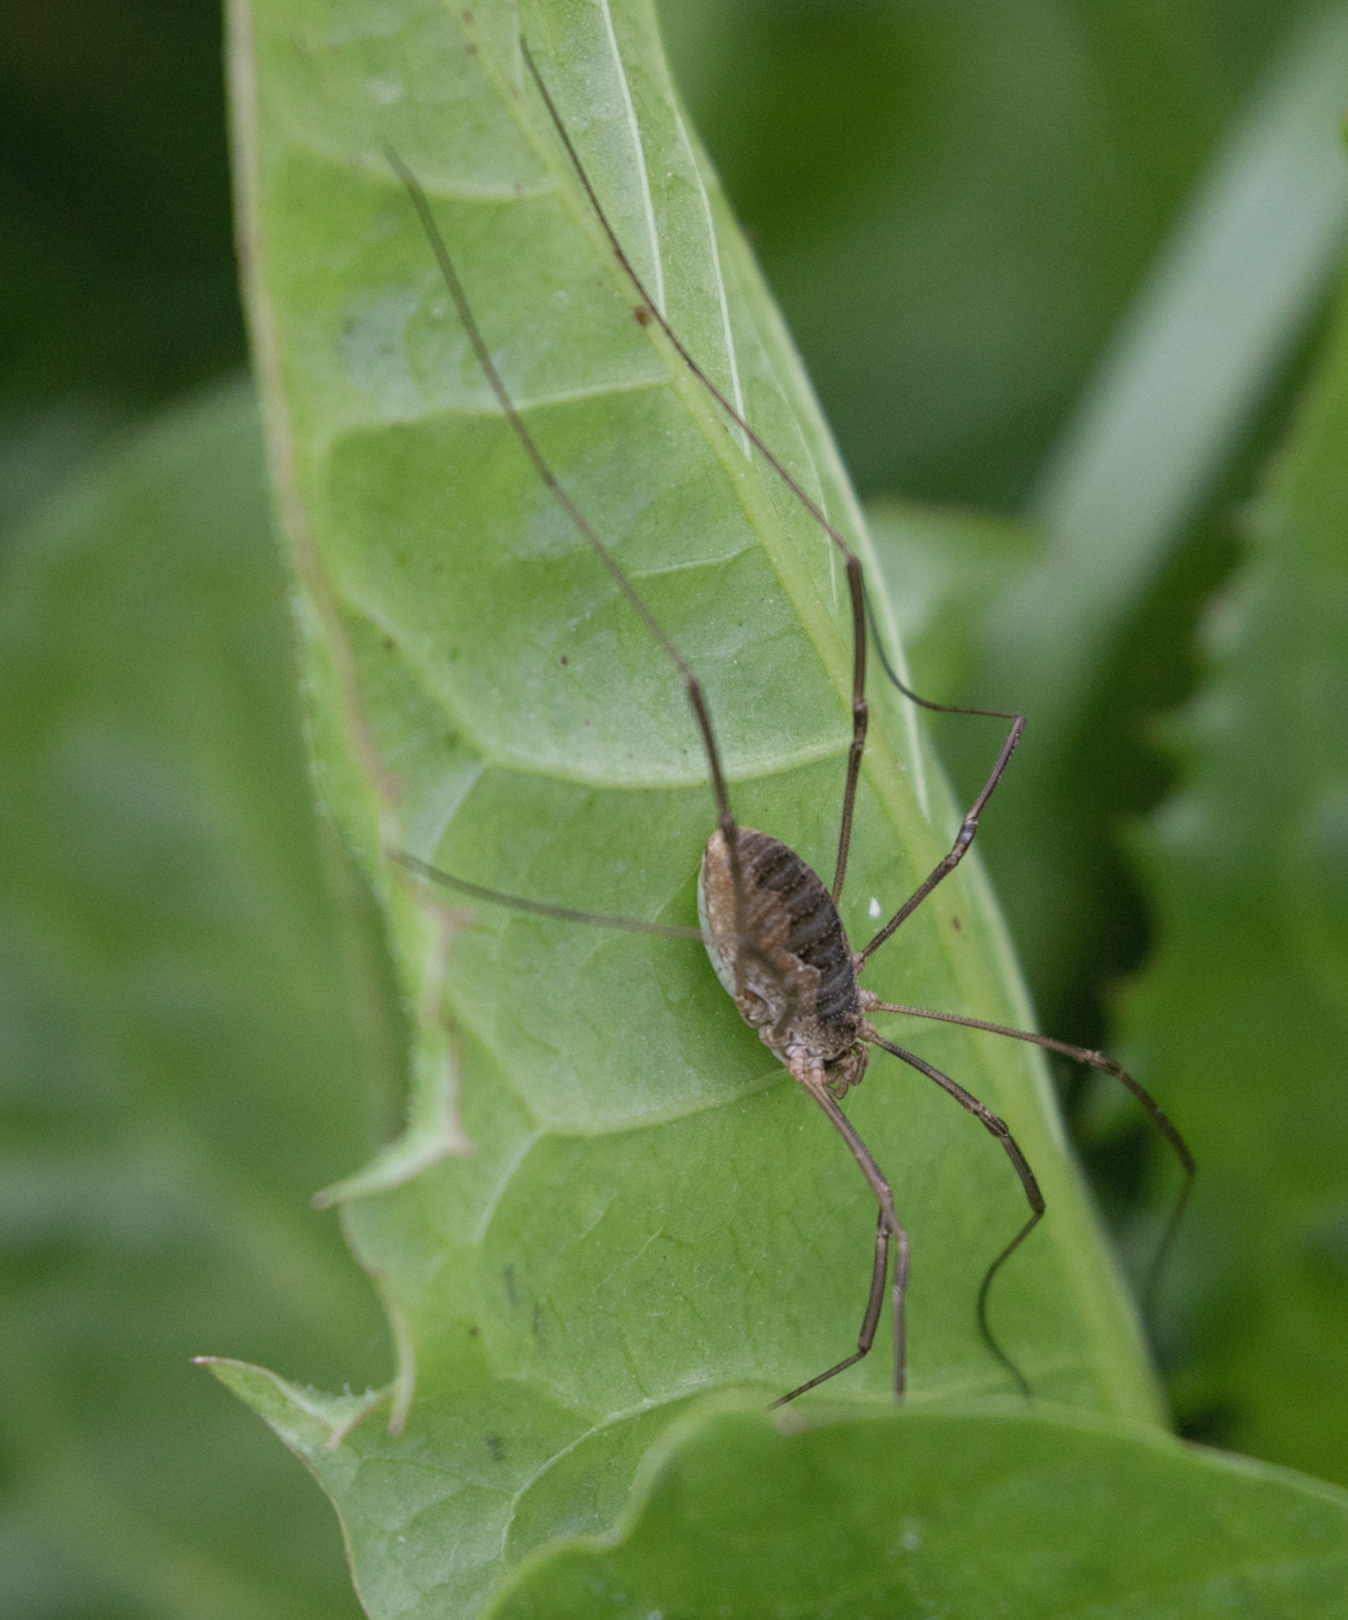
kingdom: Animalia
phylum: Arthropoda
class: Arachnida
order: Opiliones
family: Phalangiidae
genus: Phalangium
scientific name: Phalangium opilio
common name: Daddy longleg
